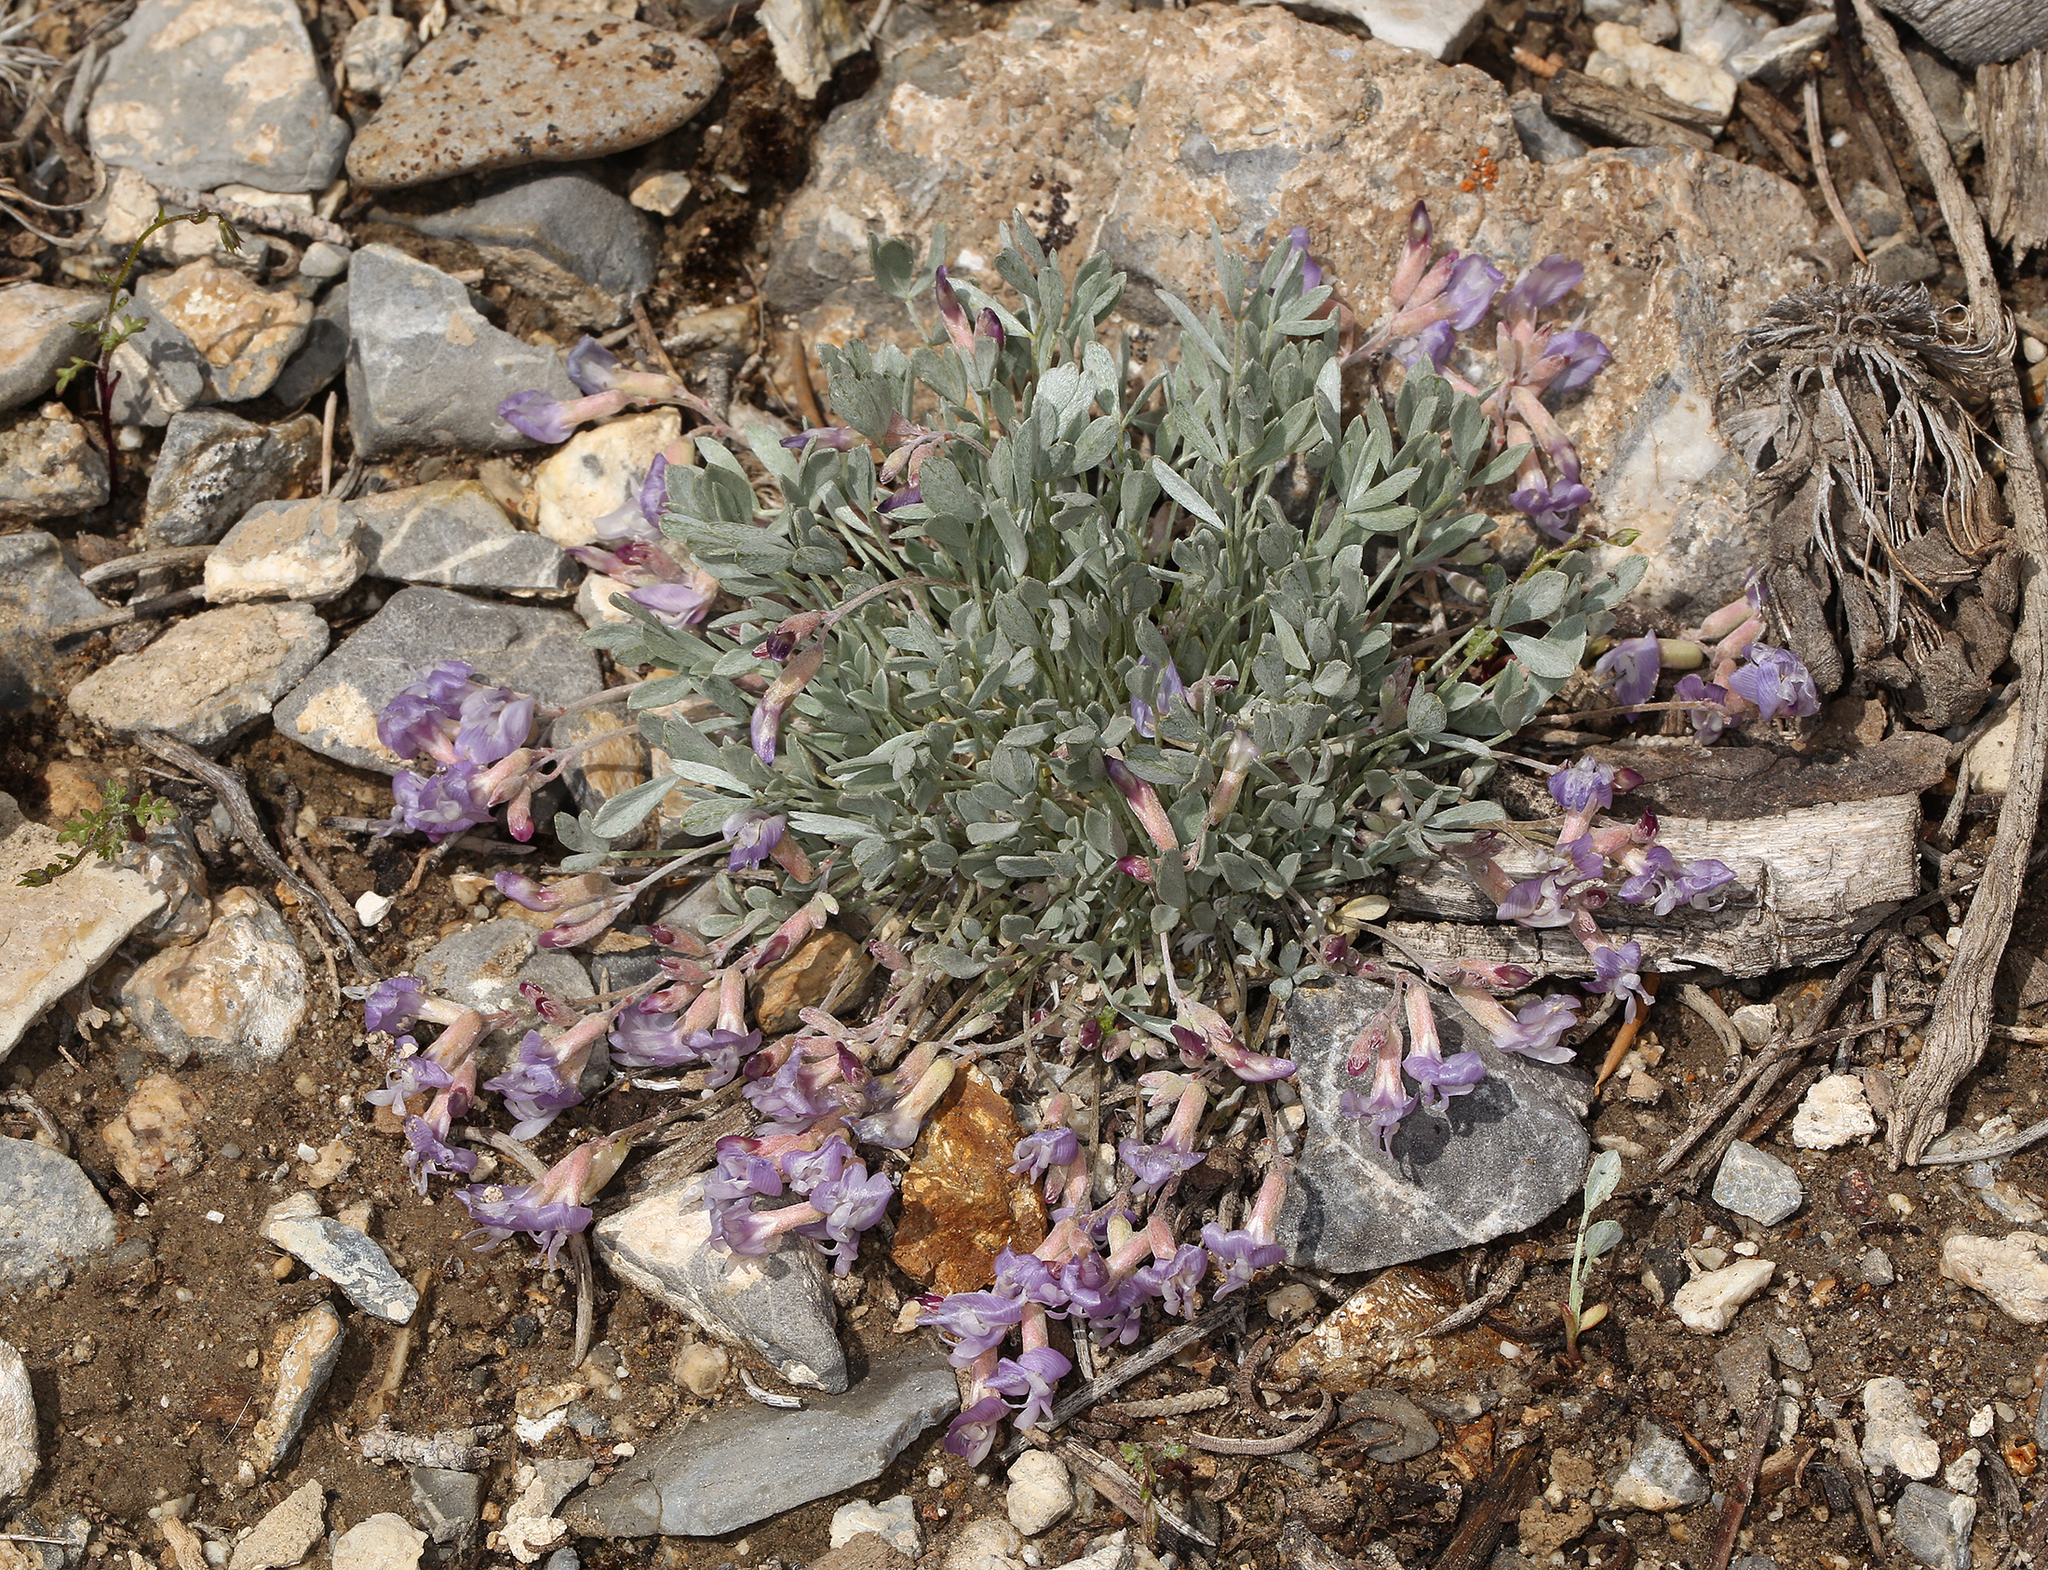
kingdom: Plantae
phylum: Tracheophyta
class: Magnoliopsida
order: Fabales
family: Fabaceae
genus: Astragalus
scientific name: Astragalus calycosus
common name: King's milkvetch
